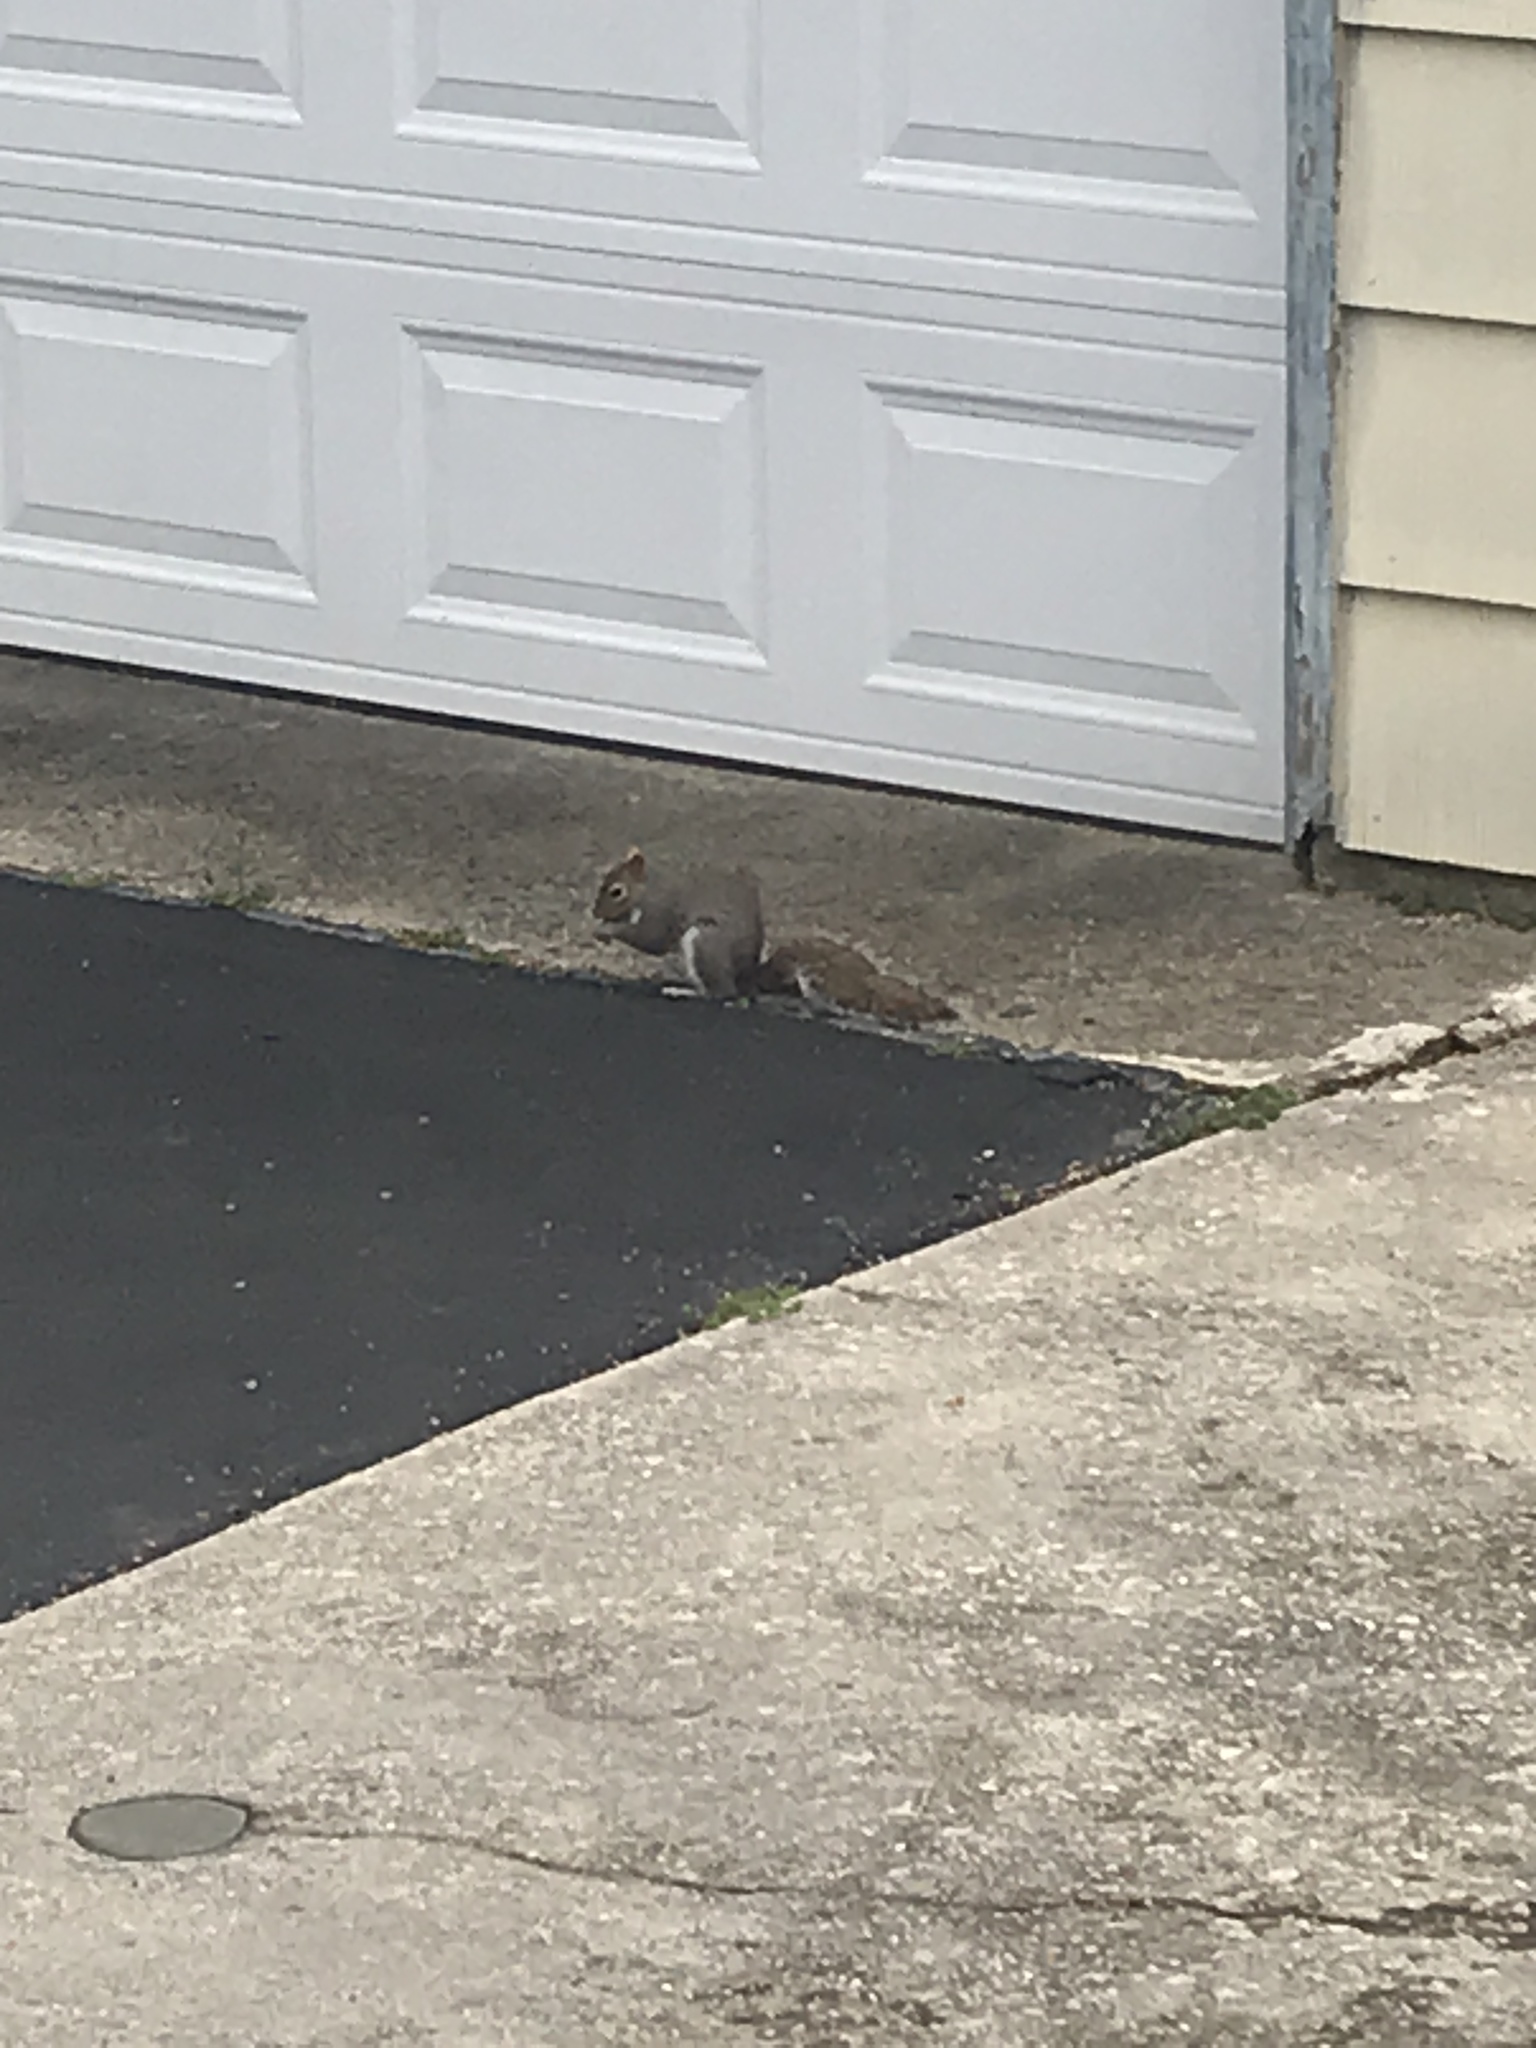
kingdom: Animalia
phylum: Chordata
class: Mammalia
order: Rodentia
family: Sciuridae
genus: Sciurus
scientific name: Sciurus carolinensis
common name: Eastern gray squirrel
